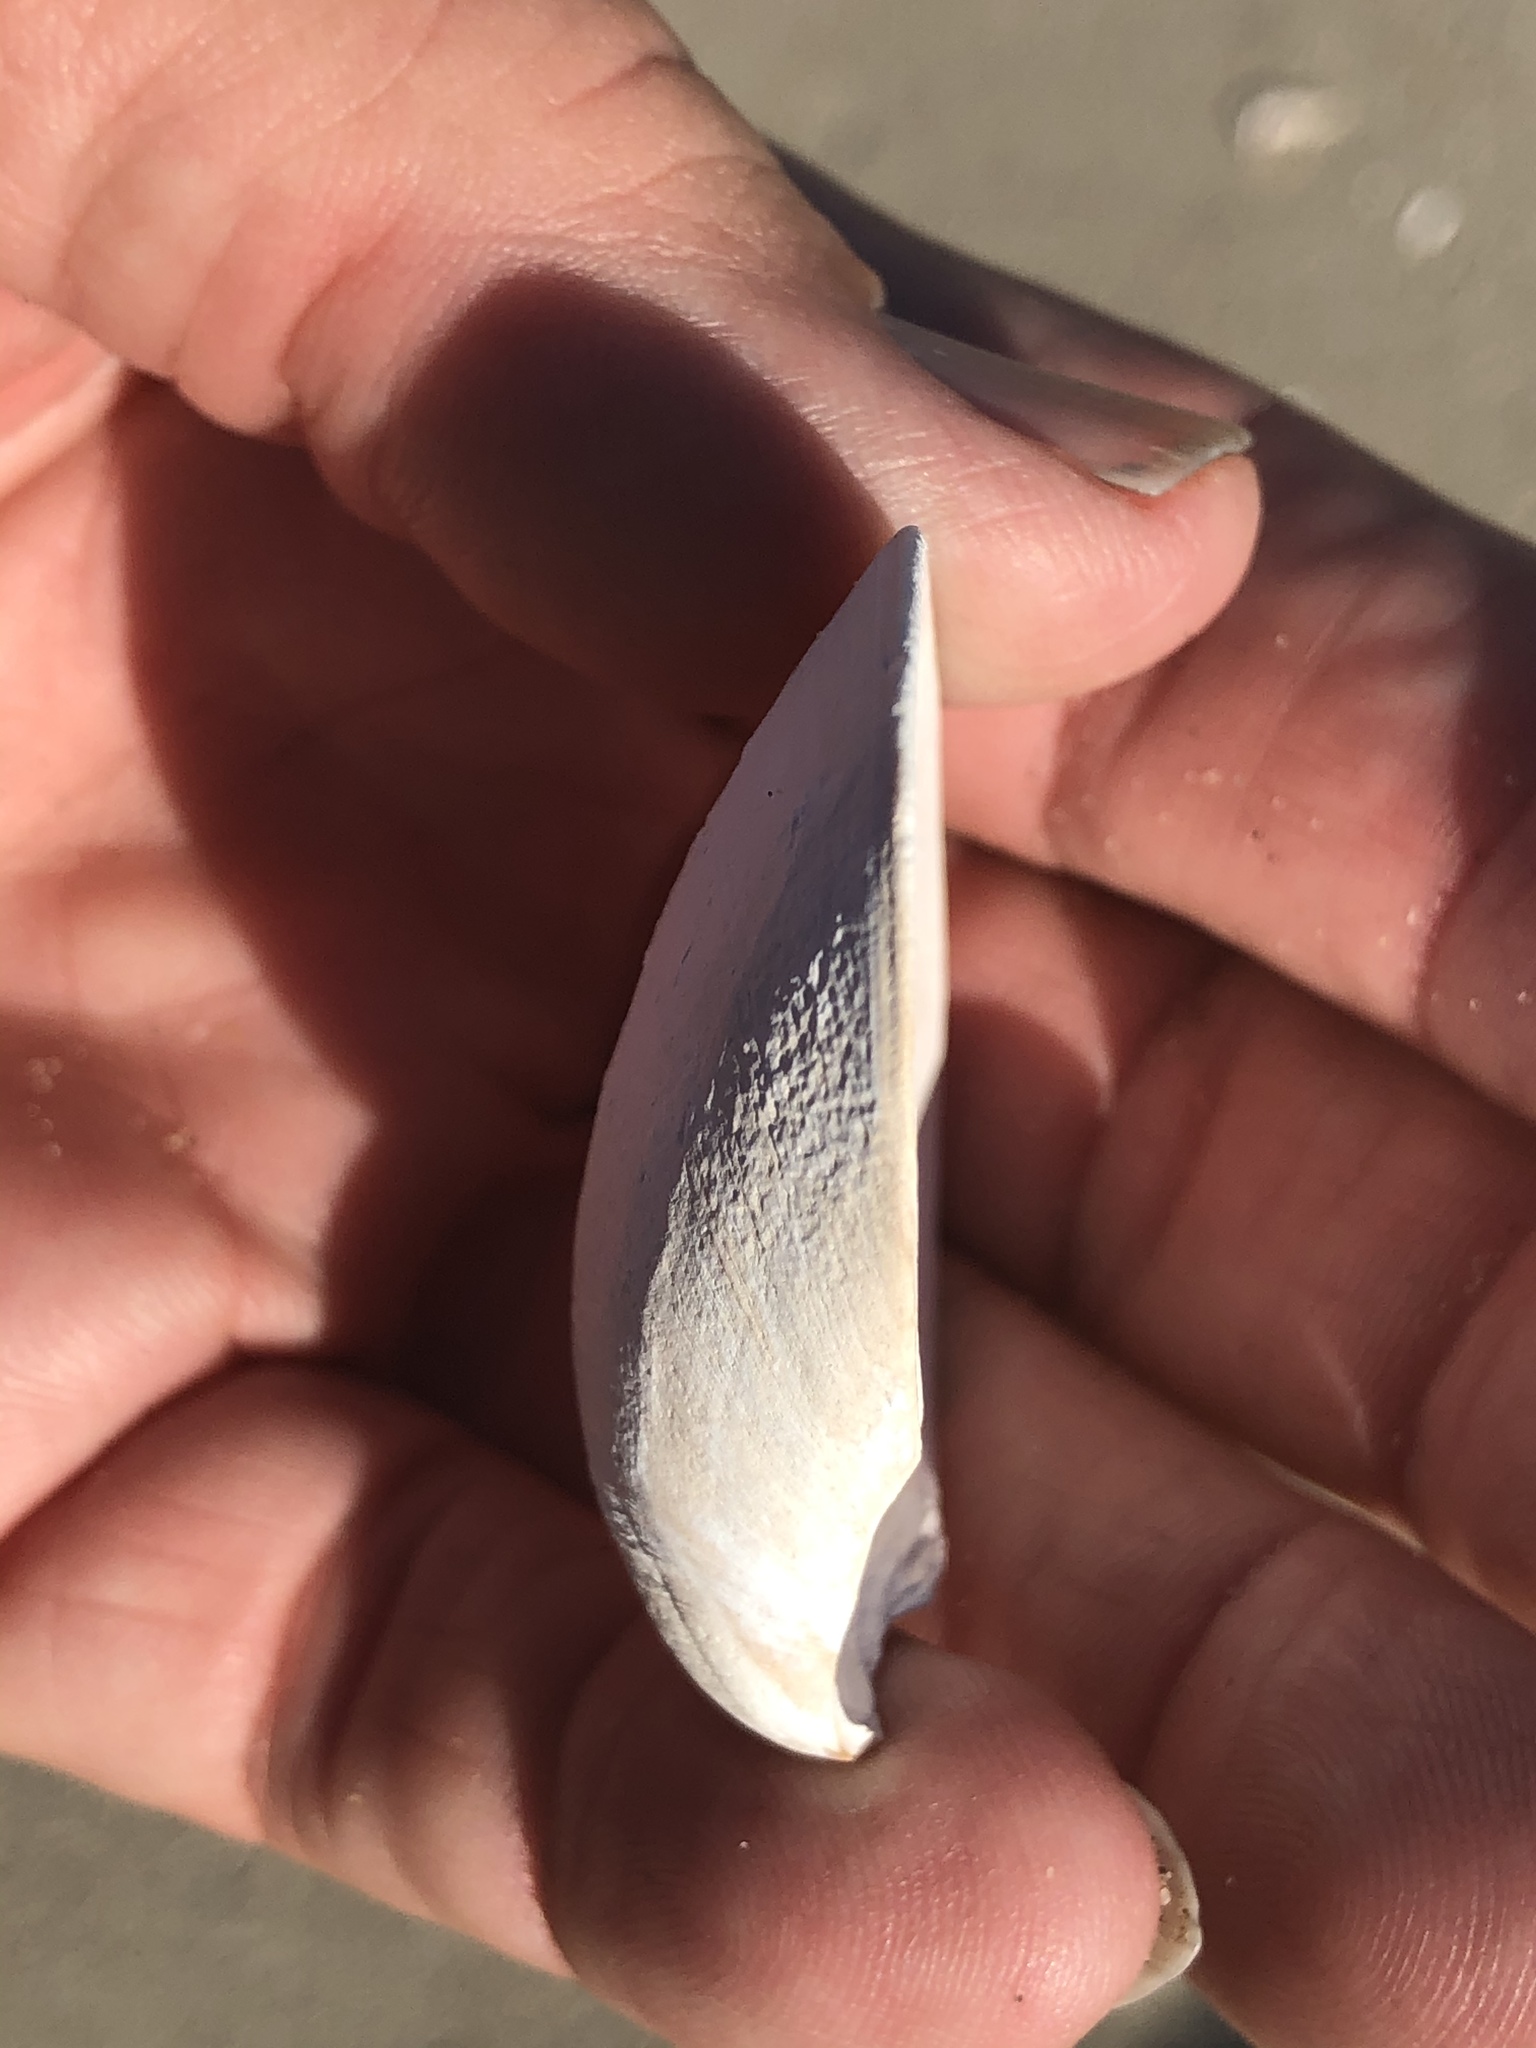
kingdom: Animalia
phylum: Mollusca
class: Bivalvia
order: Venerida
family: Veneridae
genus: Tivela
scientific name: Tivela stultorum
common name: Pismo clam
